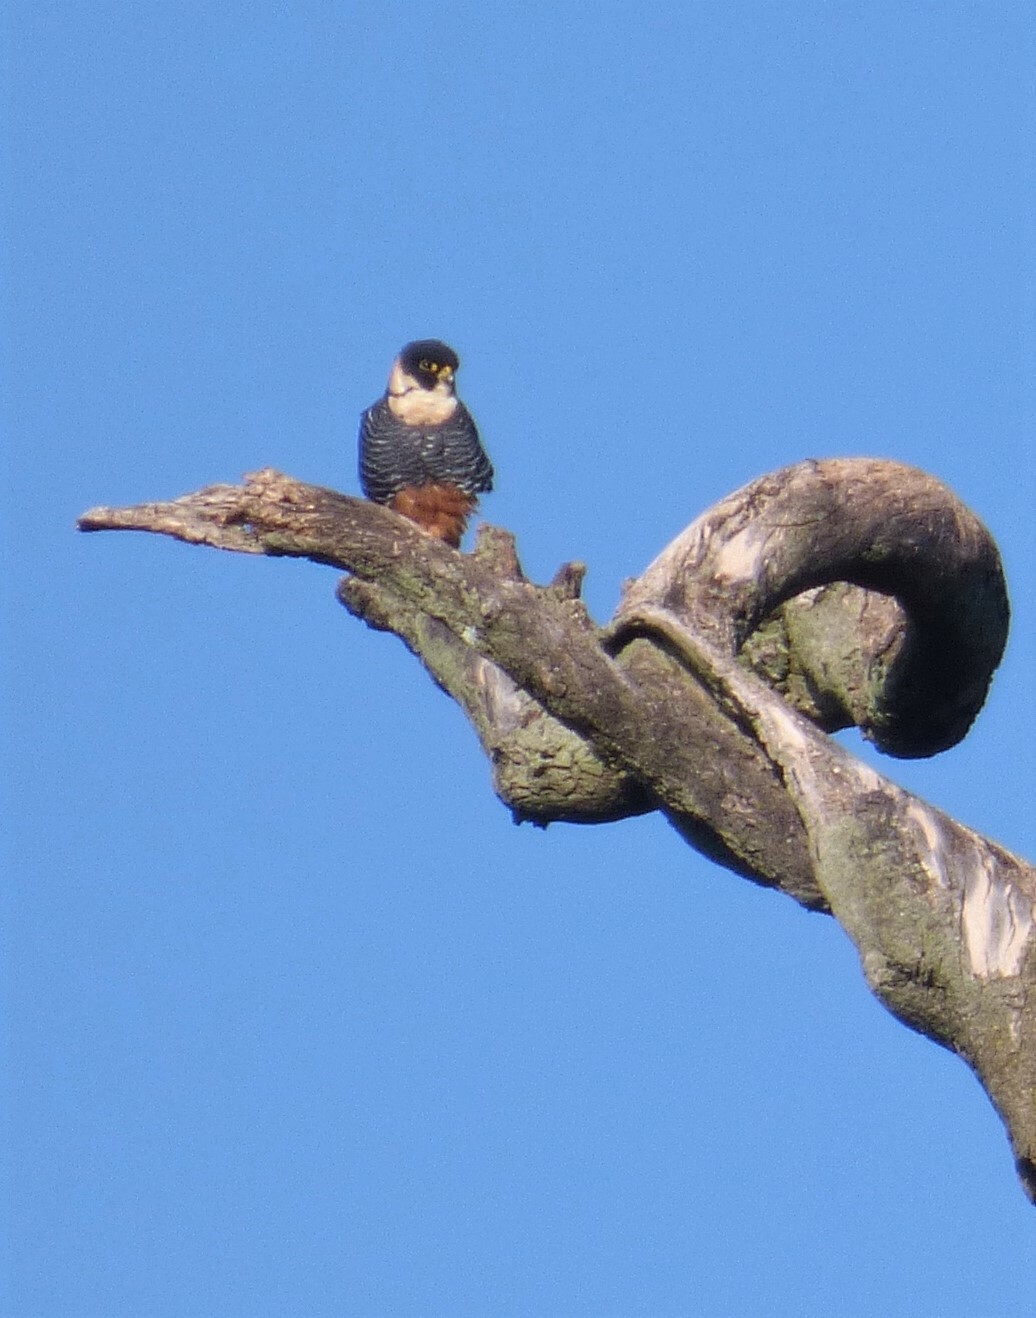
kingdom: Animalia
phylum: Chordata
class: Aves
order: Falconiformes
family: Falconidae
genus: Falco
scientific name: Falco rufigularis
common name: Bat falcon
